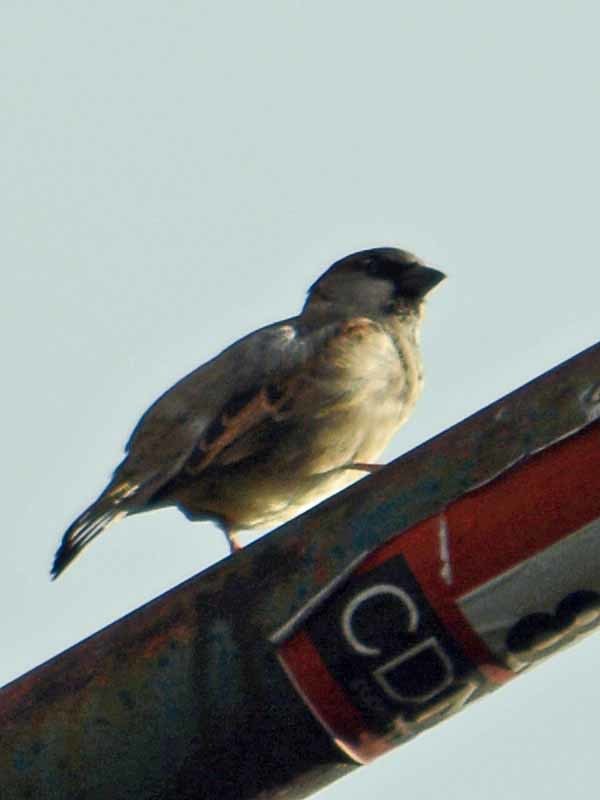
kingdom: Animalia
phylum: Chordata
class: Aves
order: Passeriformes
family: Passeridae
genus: Passer
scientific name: Passer domesticus
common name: House sparrow
